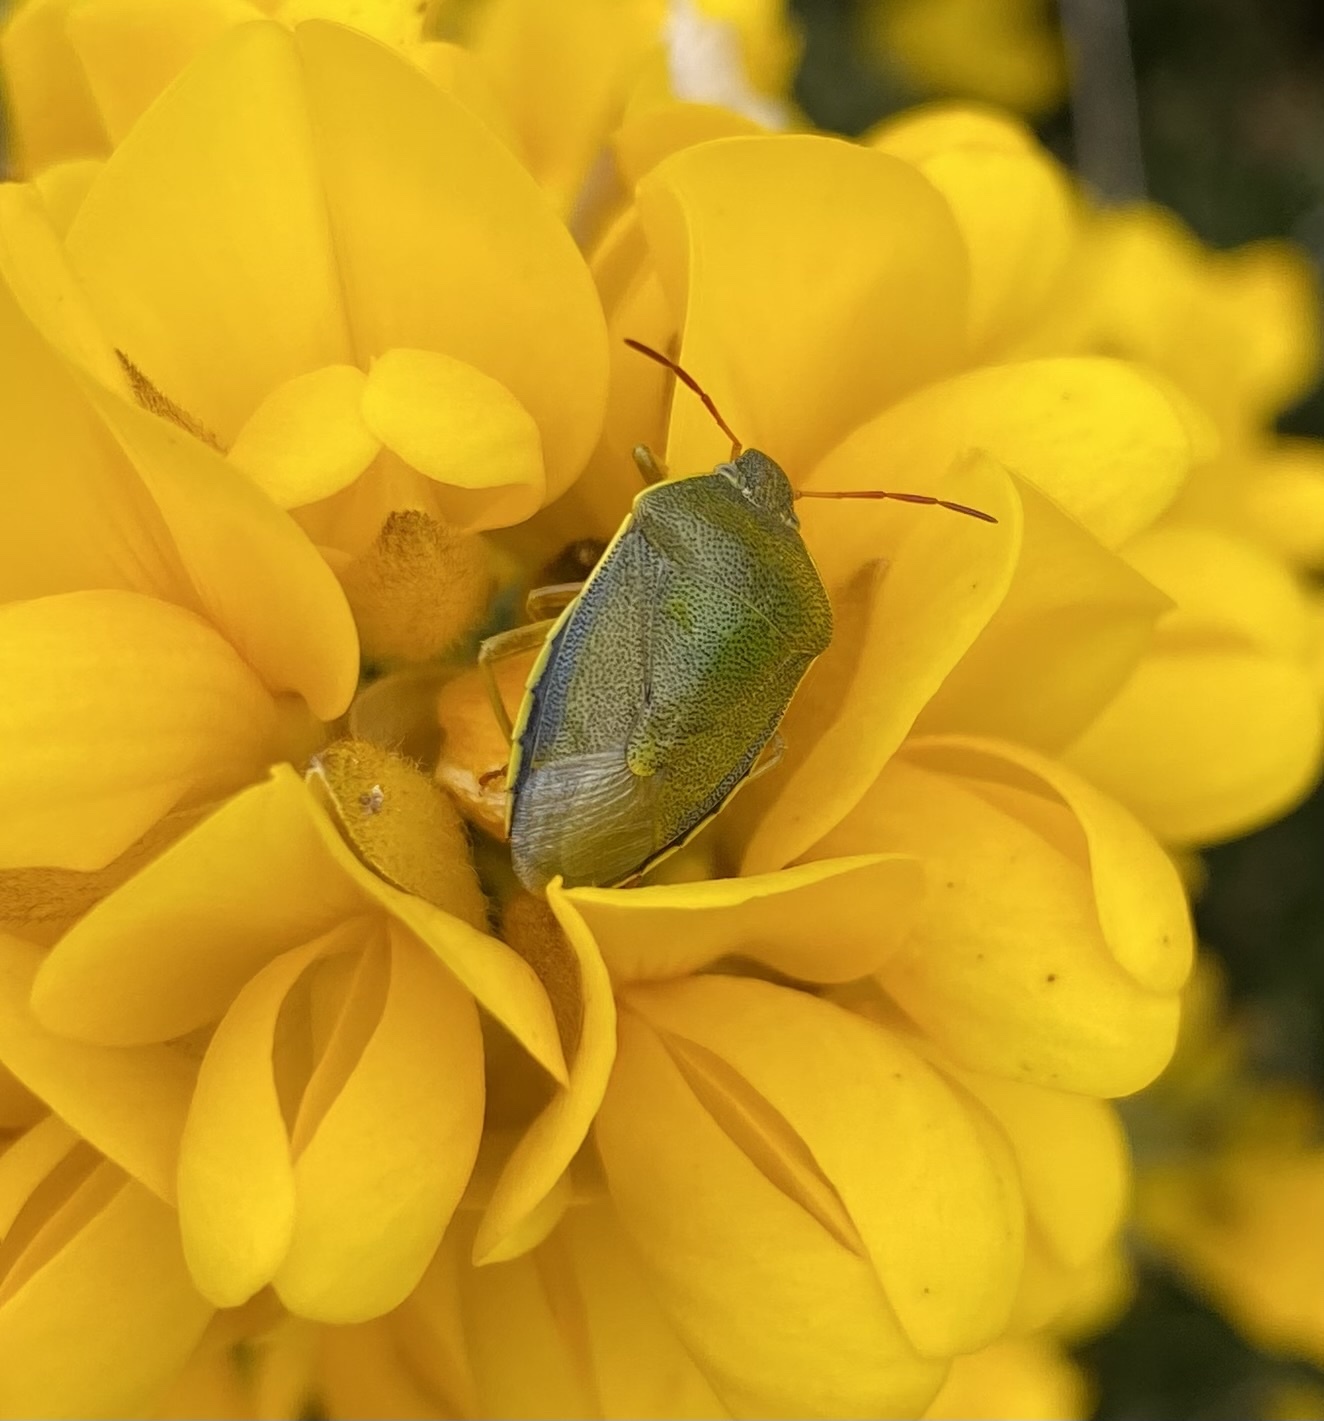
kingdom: Animalia
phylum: Arthropoda
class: Insecta
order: Hemiptera
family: Pentatomidae
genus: Piezodorus
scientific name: Piezodorus lituratus
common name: Stink bug
